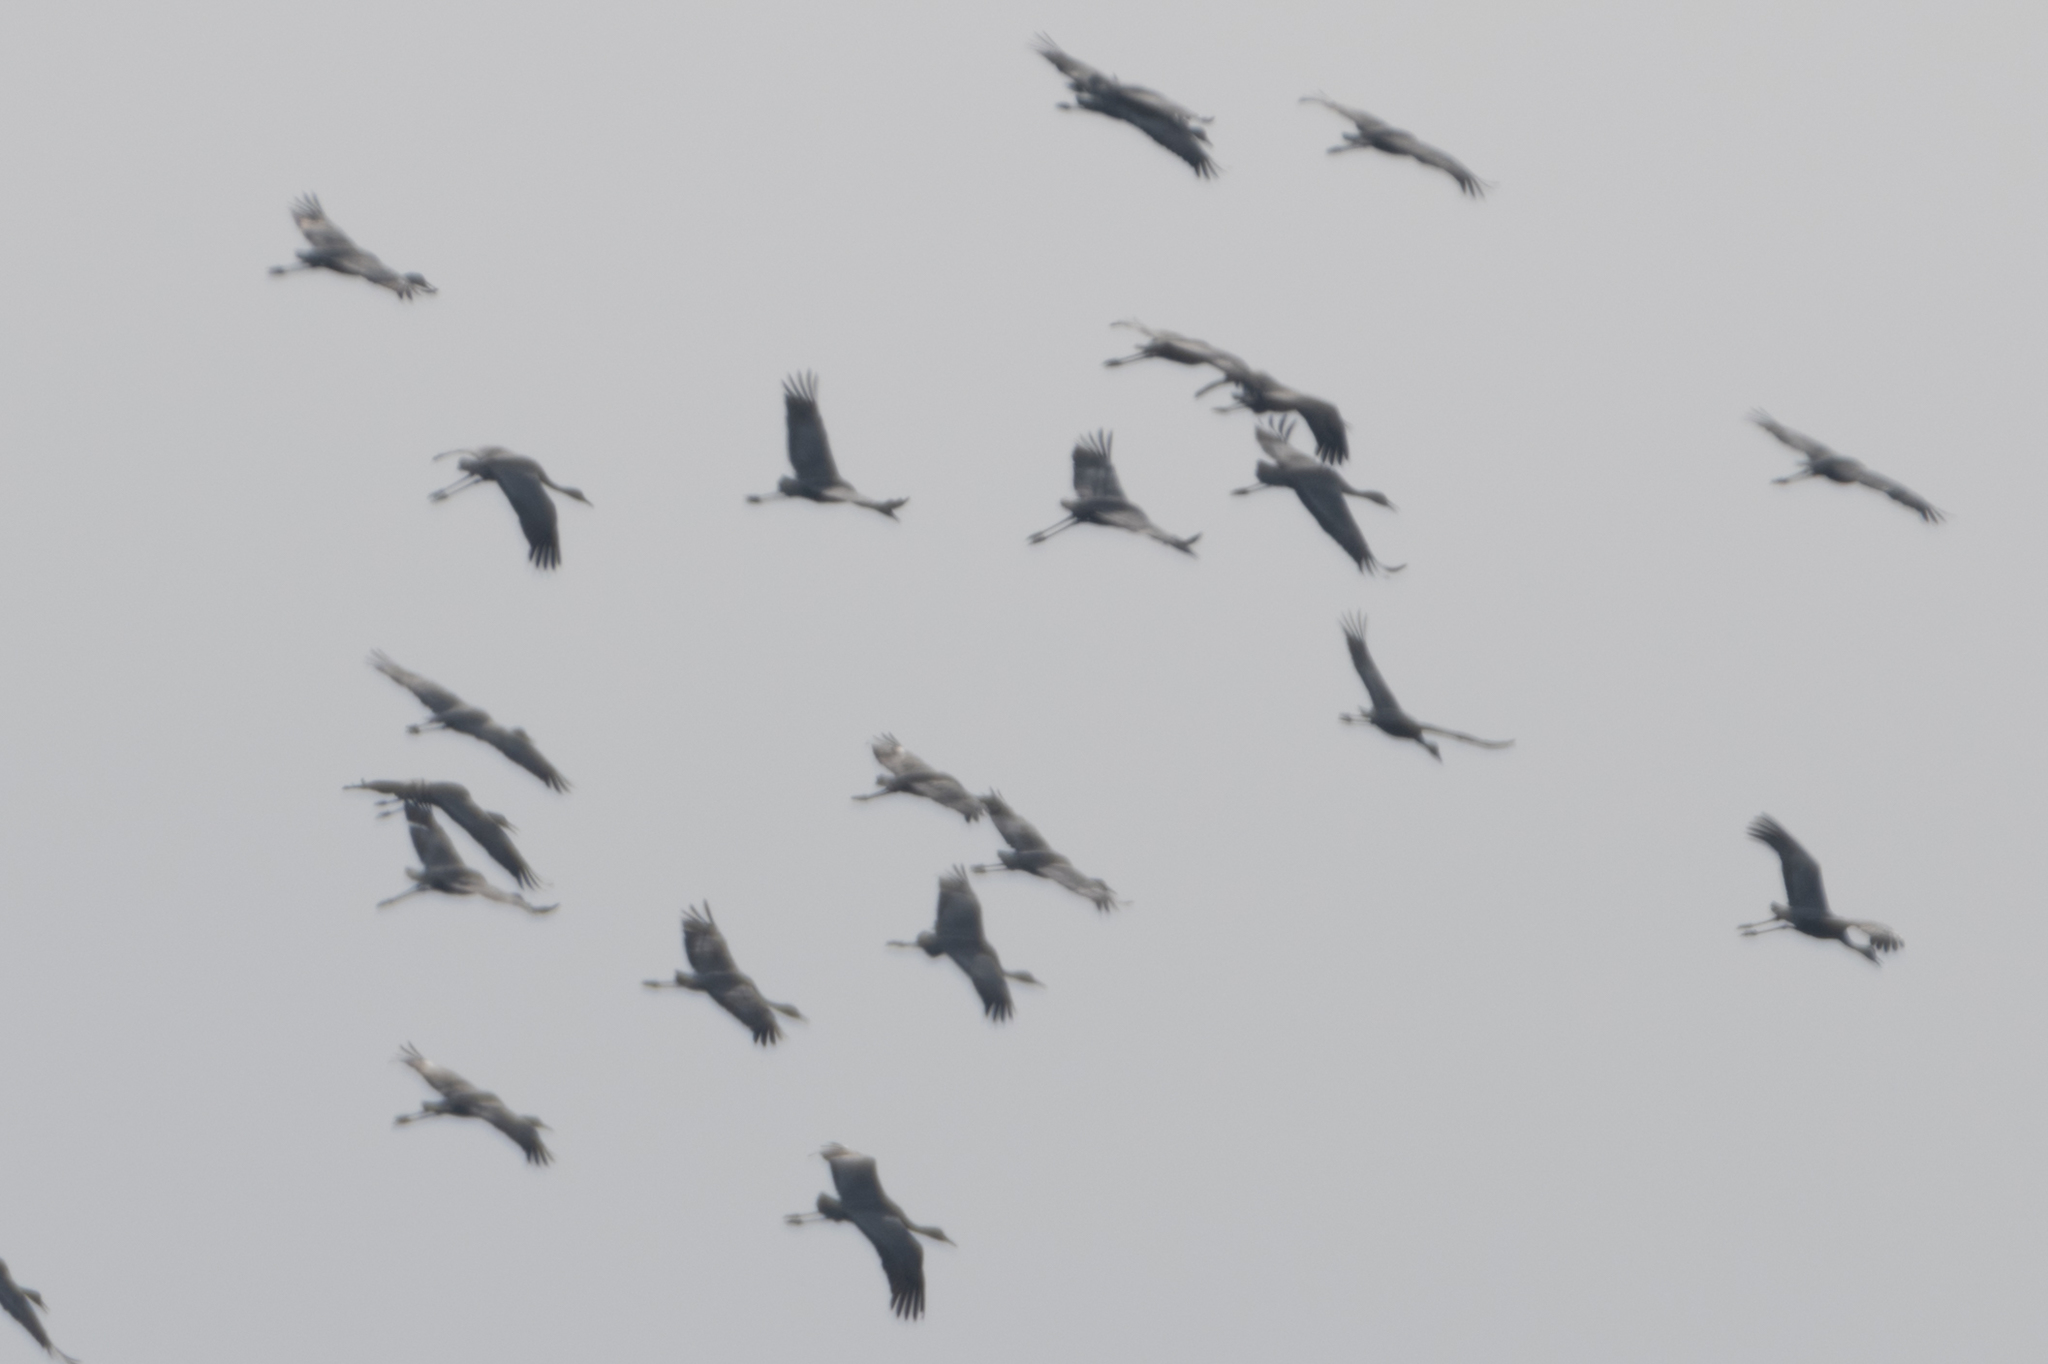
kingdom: Animalia
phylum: Chordata
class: Aves
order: Gruiformes
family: Gruidae
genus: Grus
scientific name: Grus canadensis
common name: Sandhill crane
